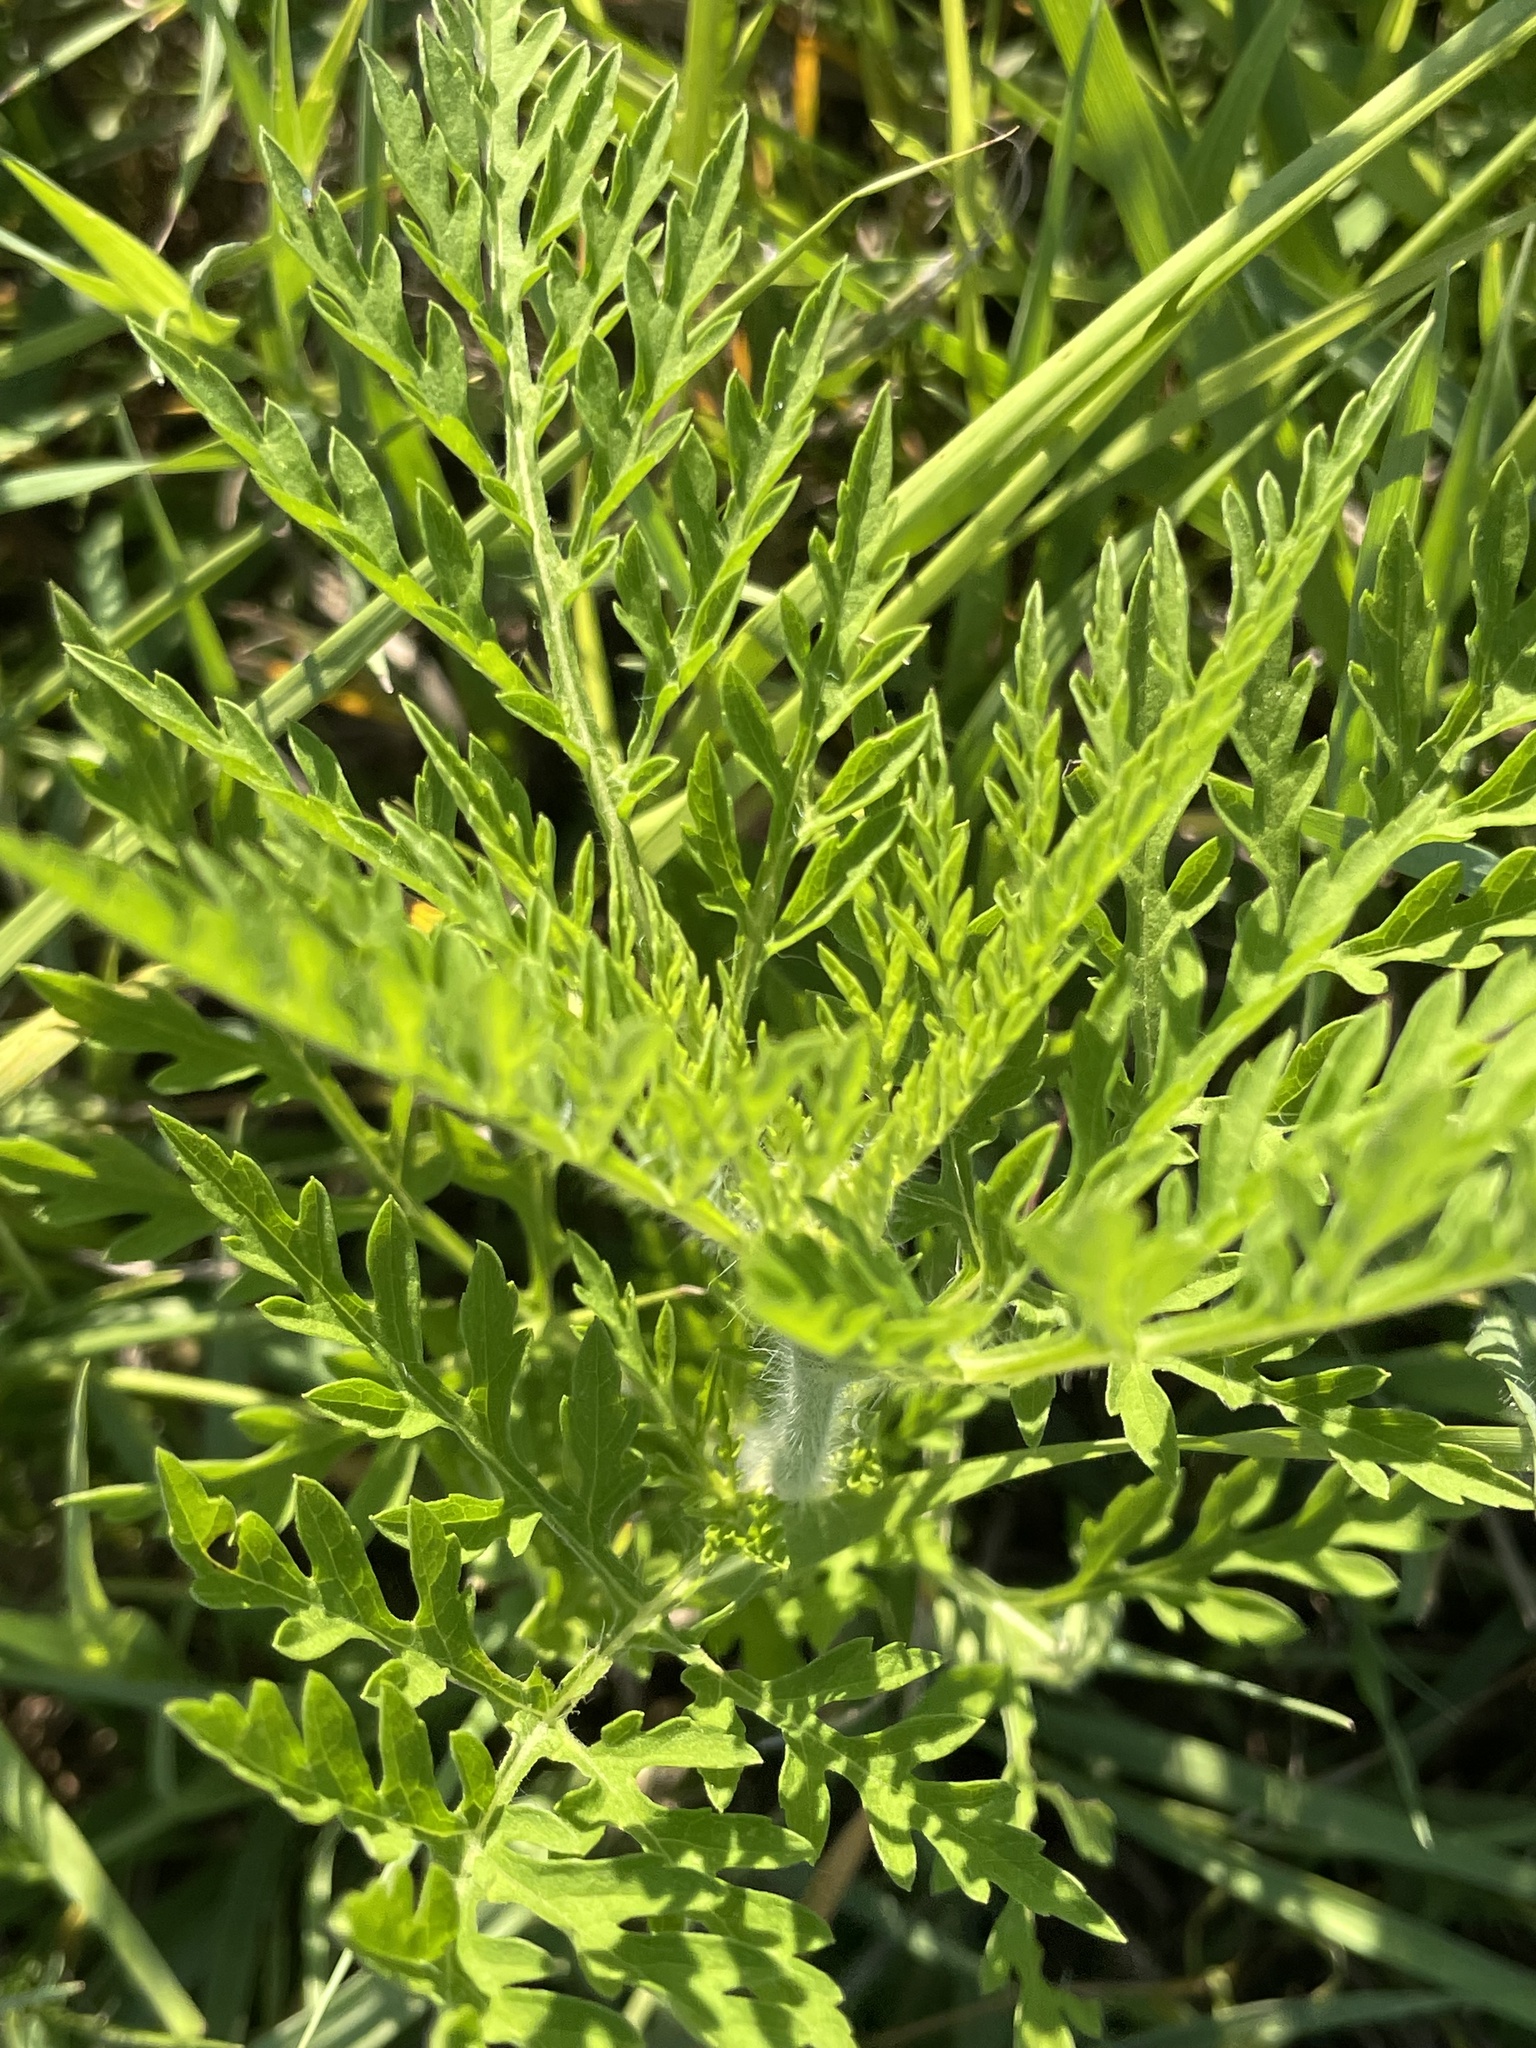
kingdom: Plantae
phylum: Tracheophyta
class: Magnoliopsida
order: Asterales
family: Asteraceae
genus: Ambrosia
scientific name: Ambrosia artemisiifolia
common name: Annual ragweed
